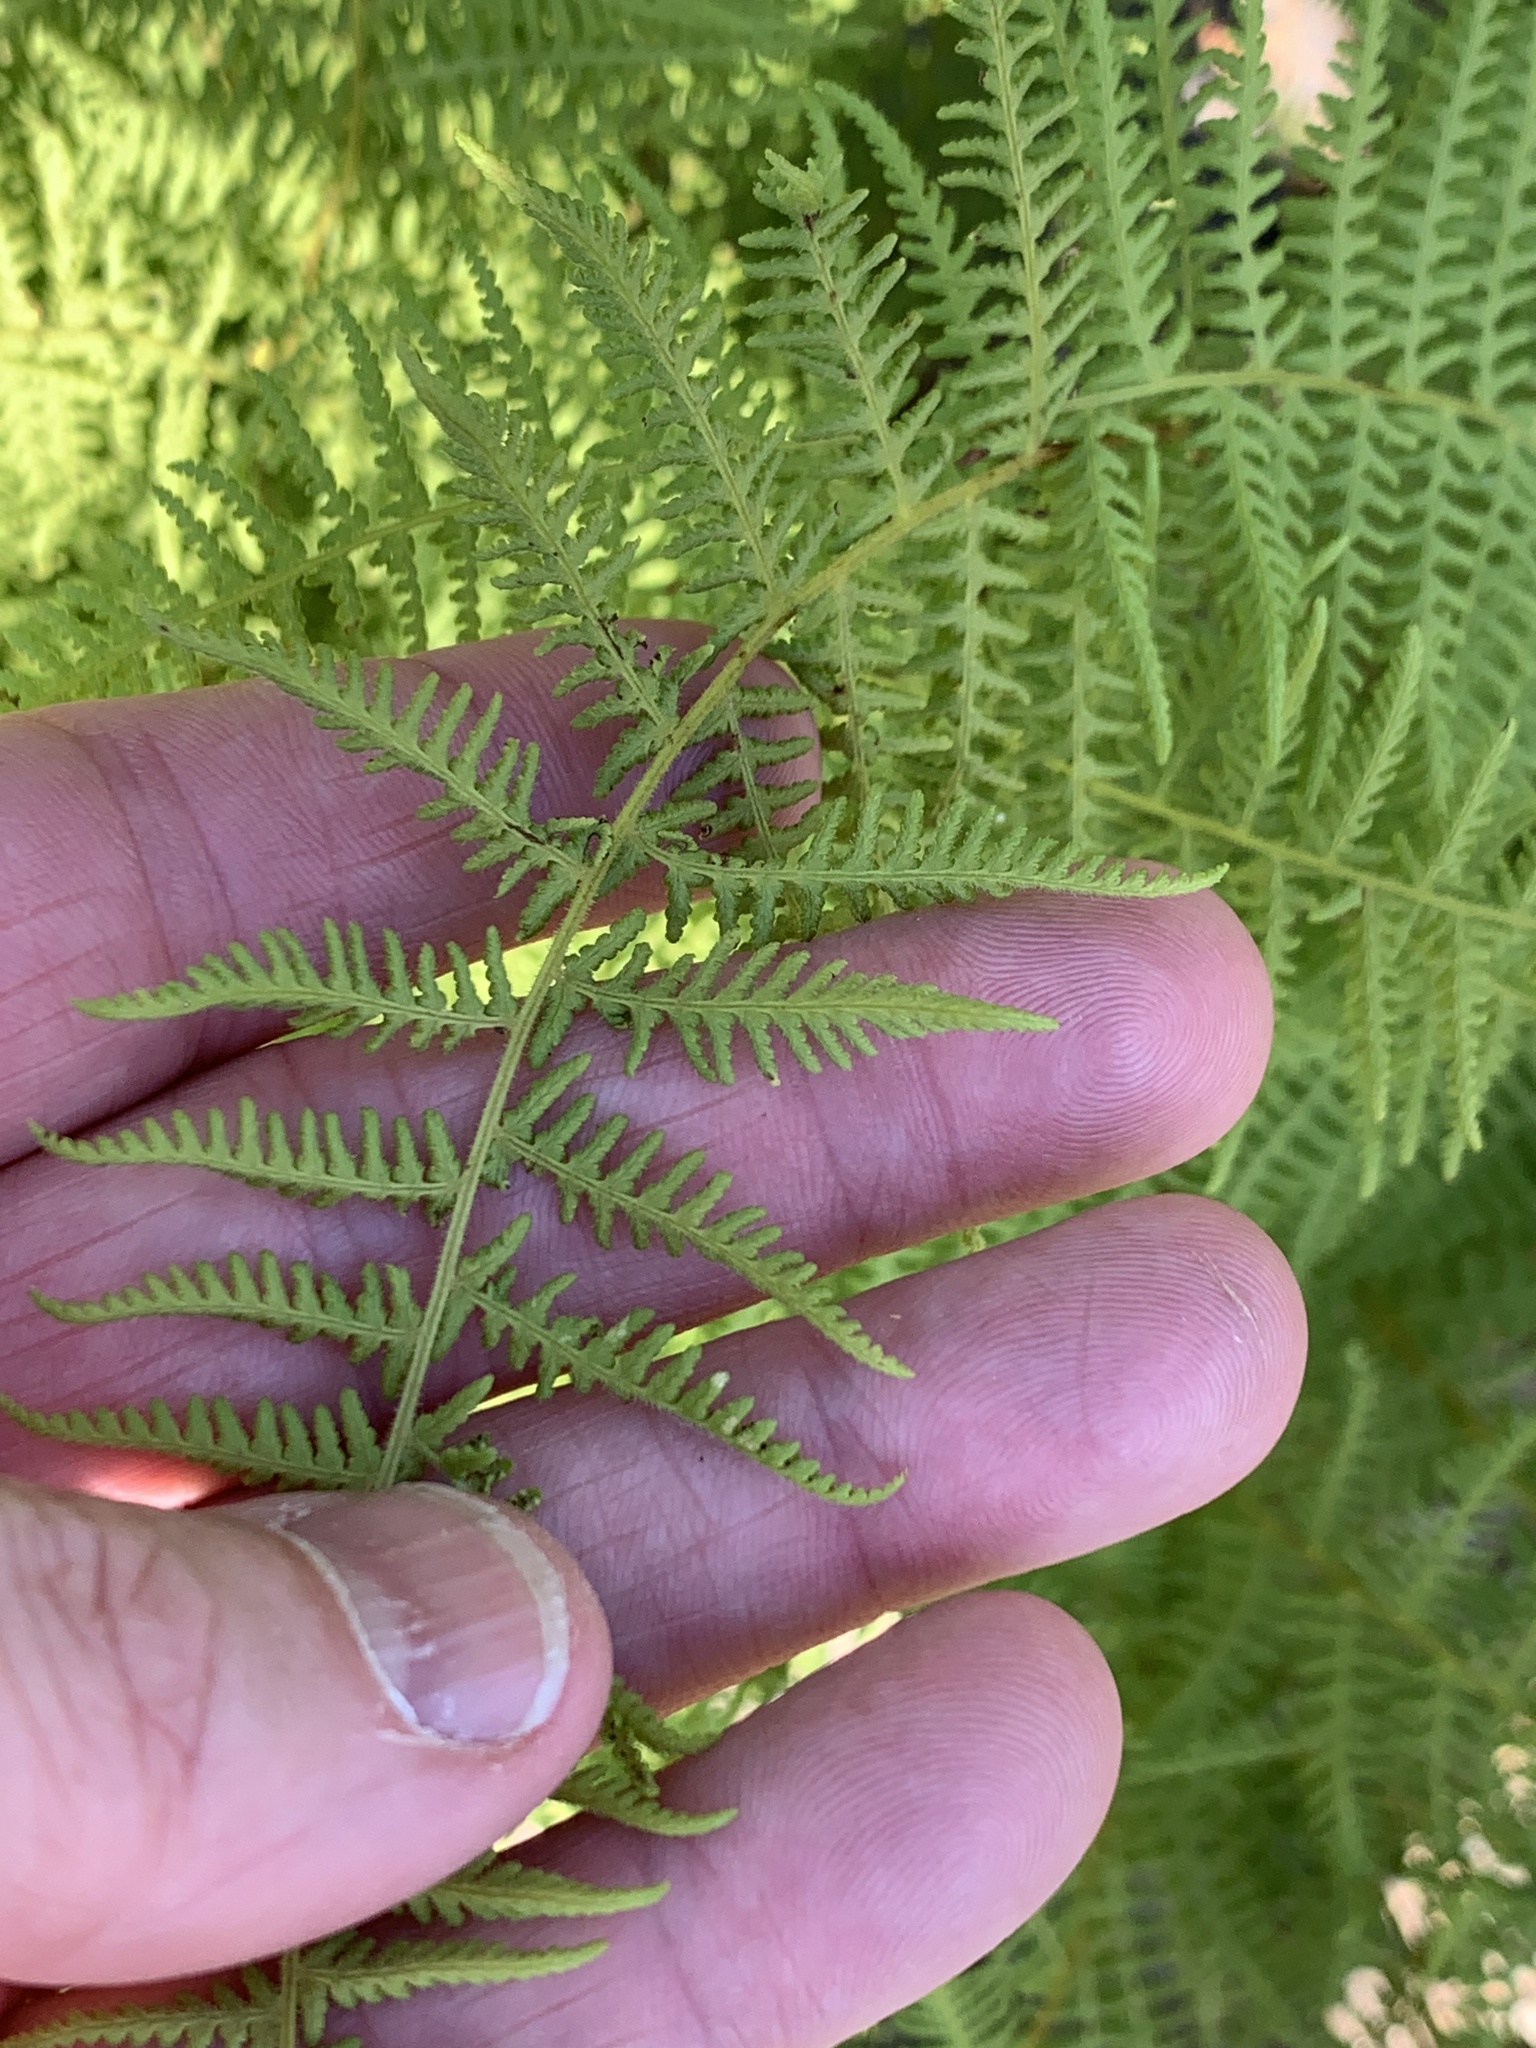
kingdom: Plantae
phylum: Tracheophyta
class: Polypodiopsida
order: Polypodiales
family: Dennstaedtiaceae
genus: Sitobolium
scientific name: Sitobolium punctilobum
